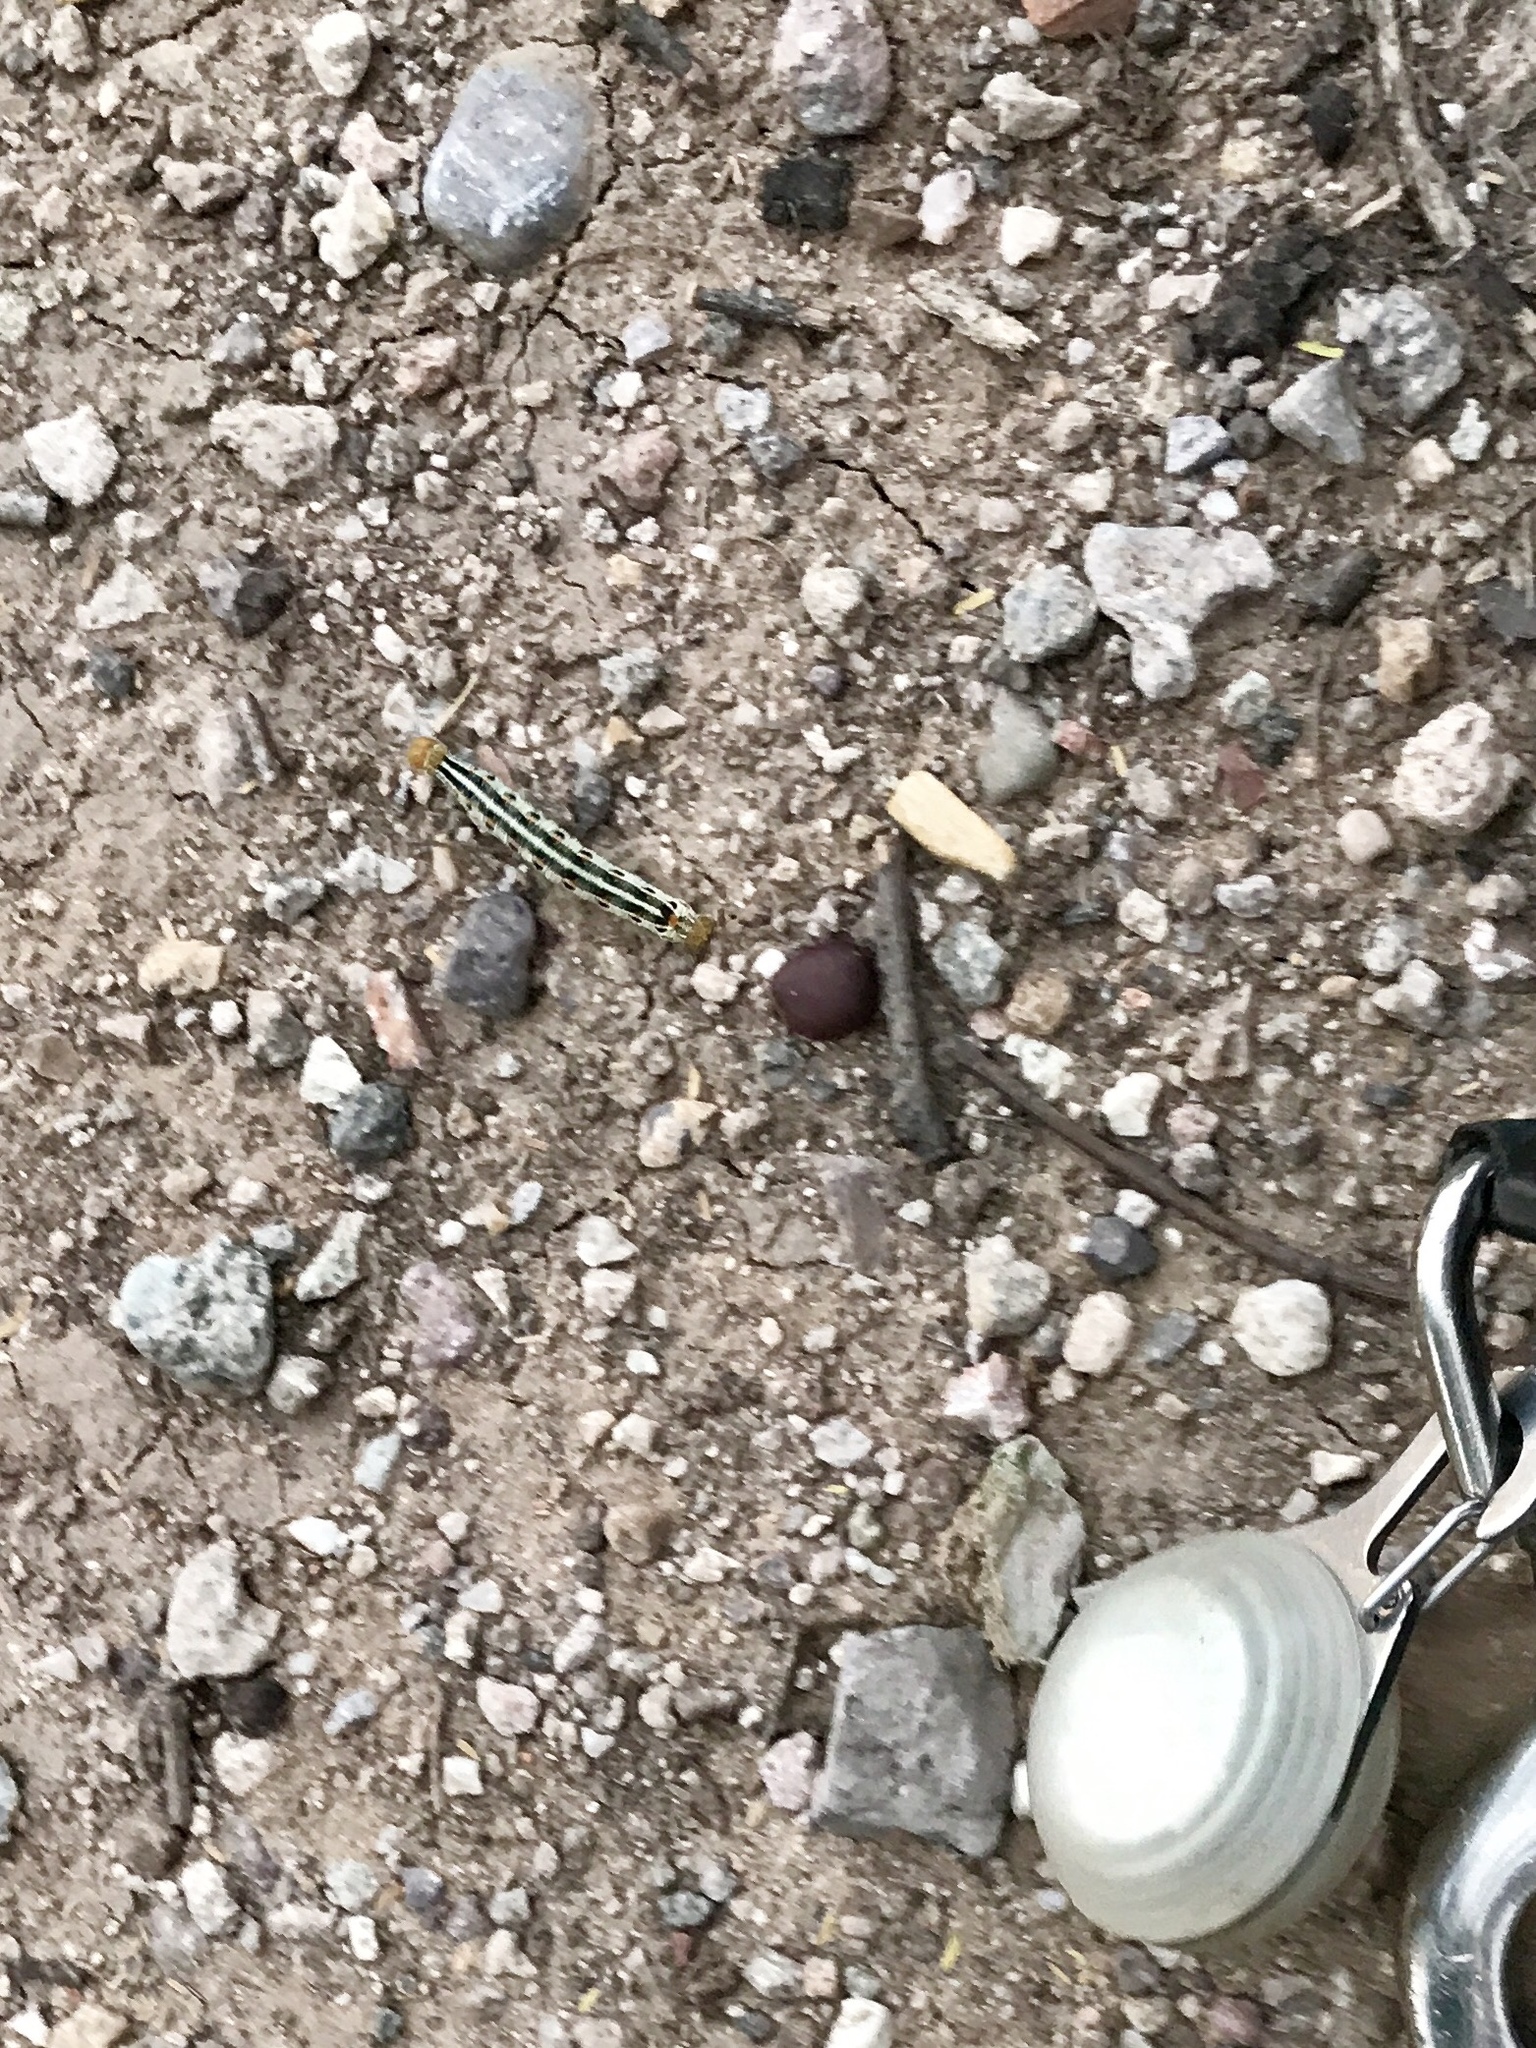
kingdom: Animalia
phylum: Arthropoda
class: Insecta
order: Lepidoptera
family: Sphingidae
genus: Hyles
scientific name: Hyles lineata
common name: White-lined sphinx
